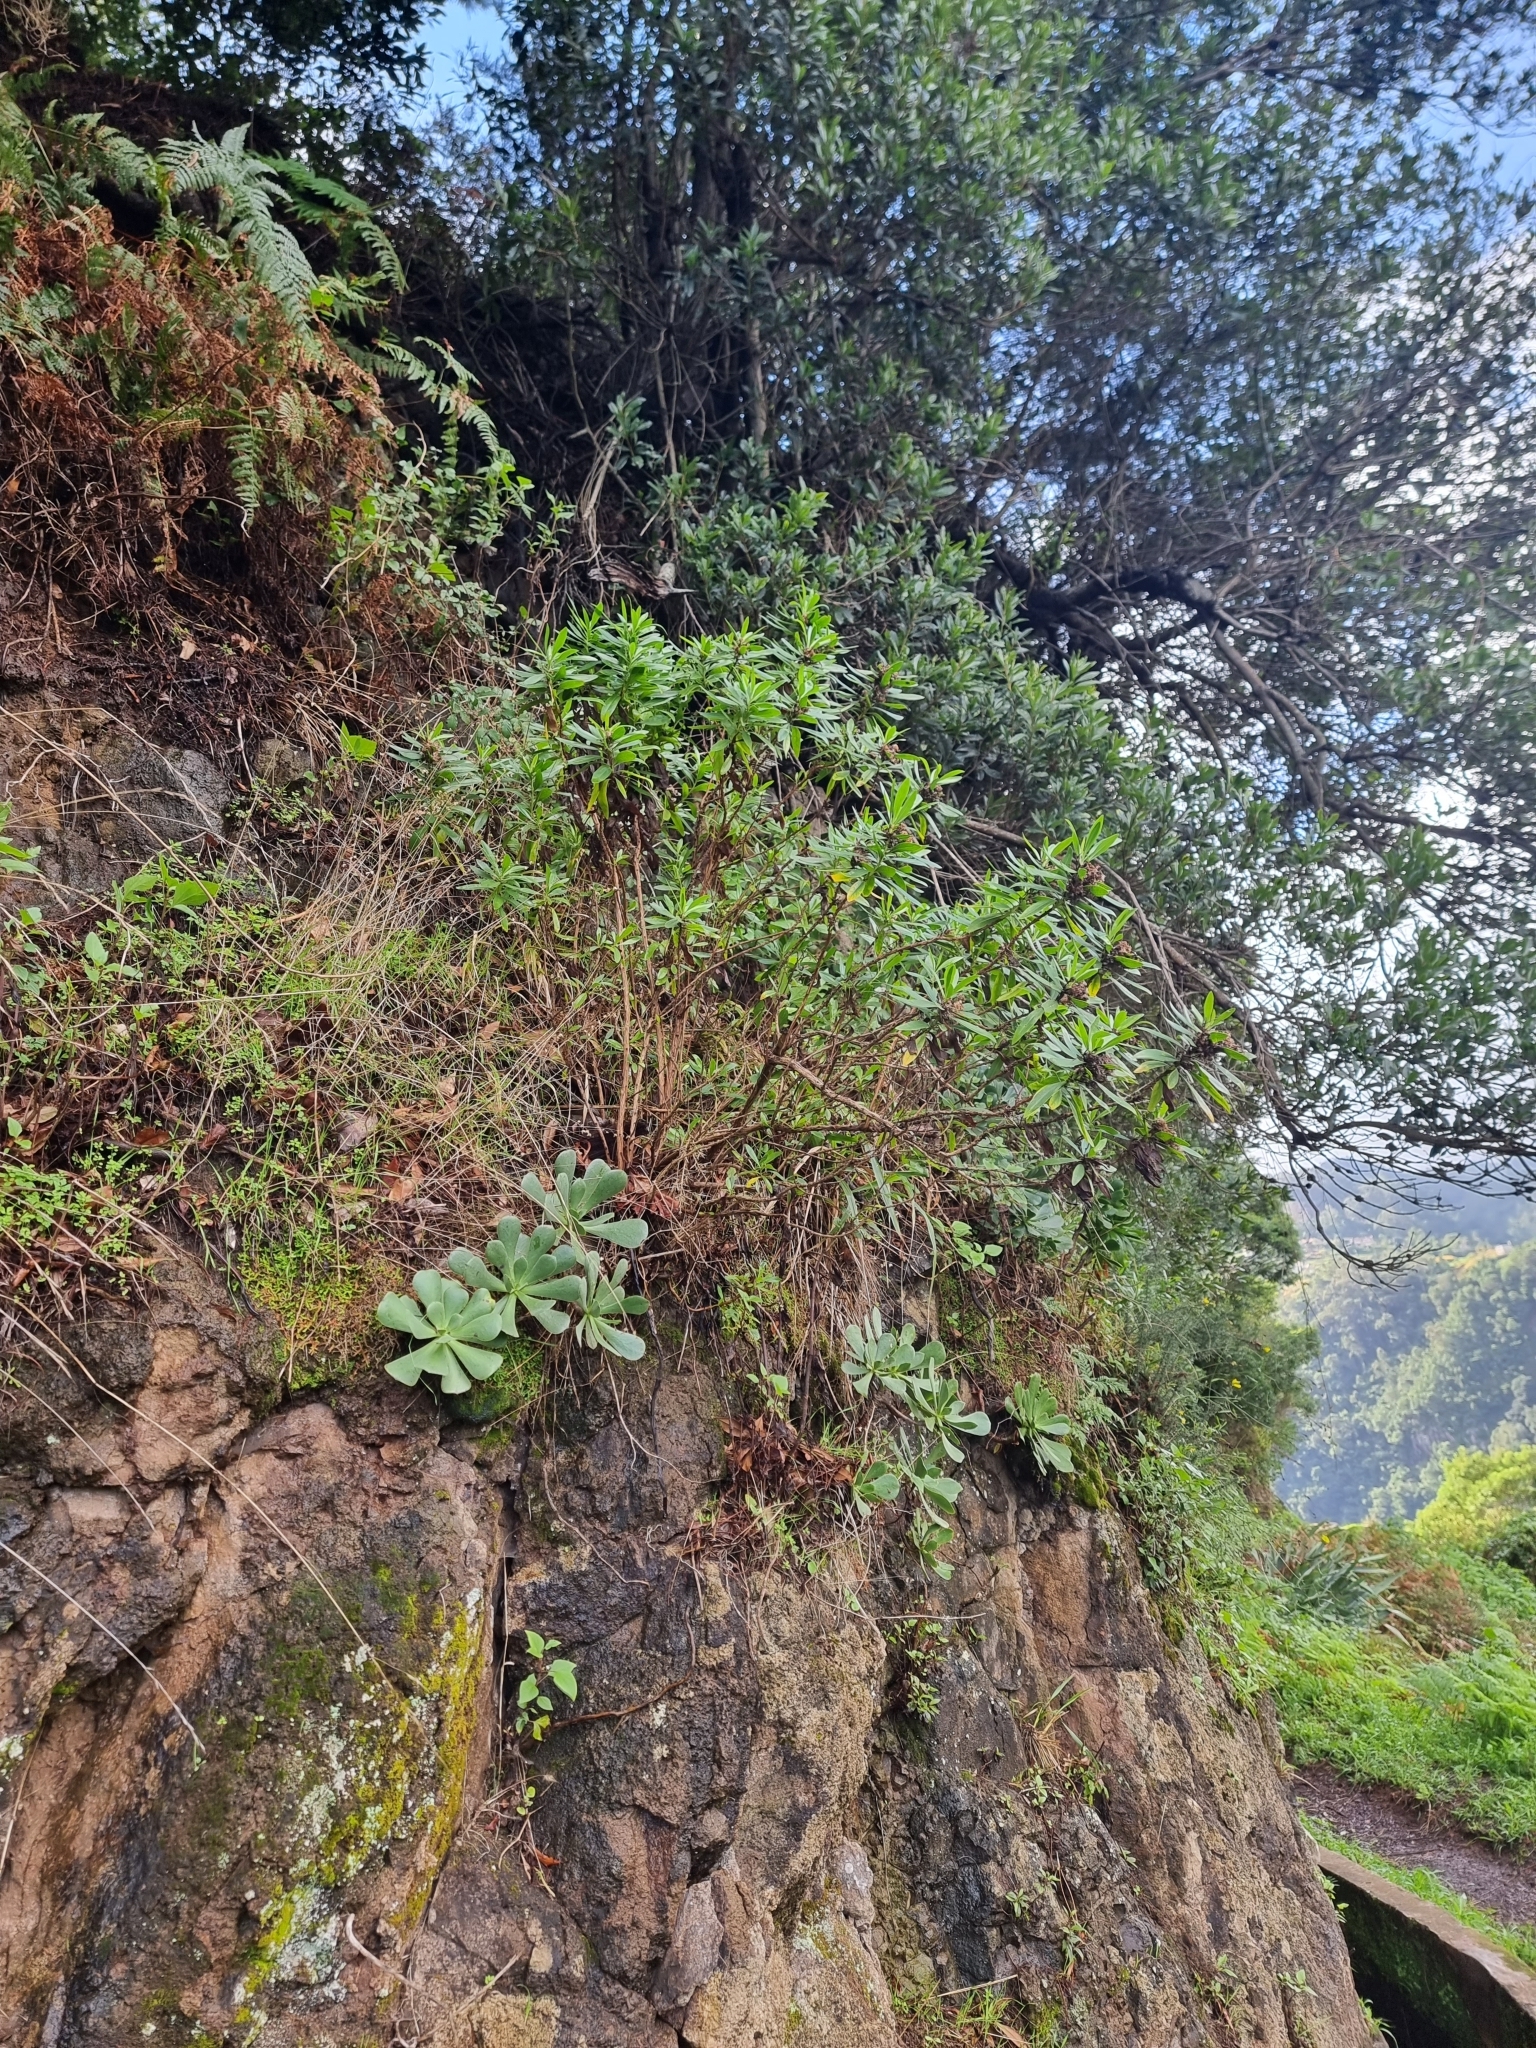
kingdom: Plantae
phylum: Tracheophyta
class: Magnoliopsida
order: Saxifragales
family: Crassulaceae
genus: Aeonium
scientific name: Aeonium glutinosum
